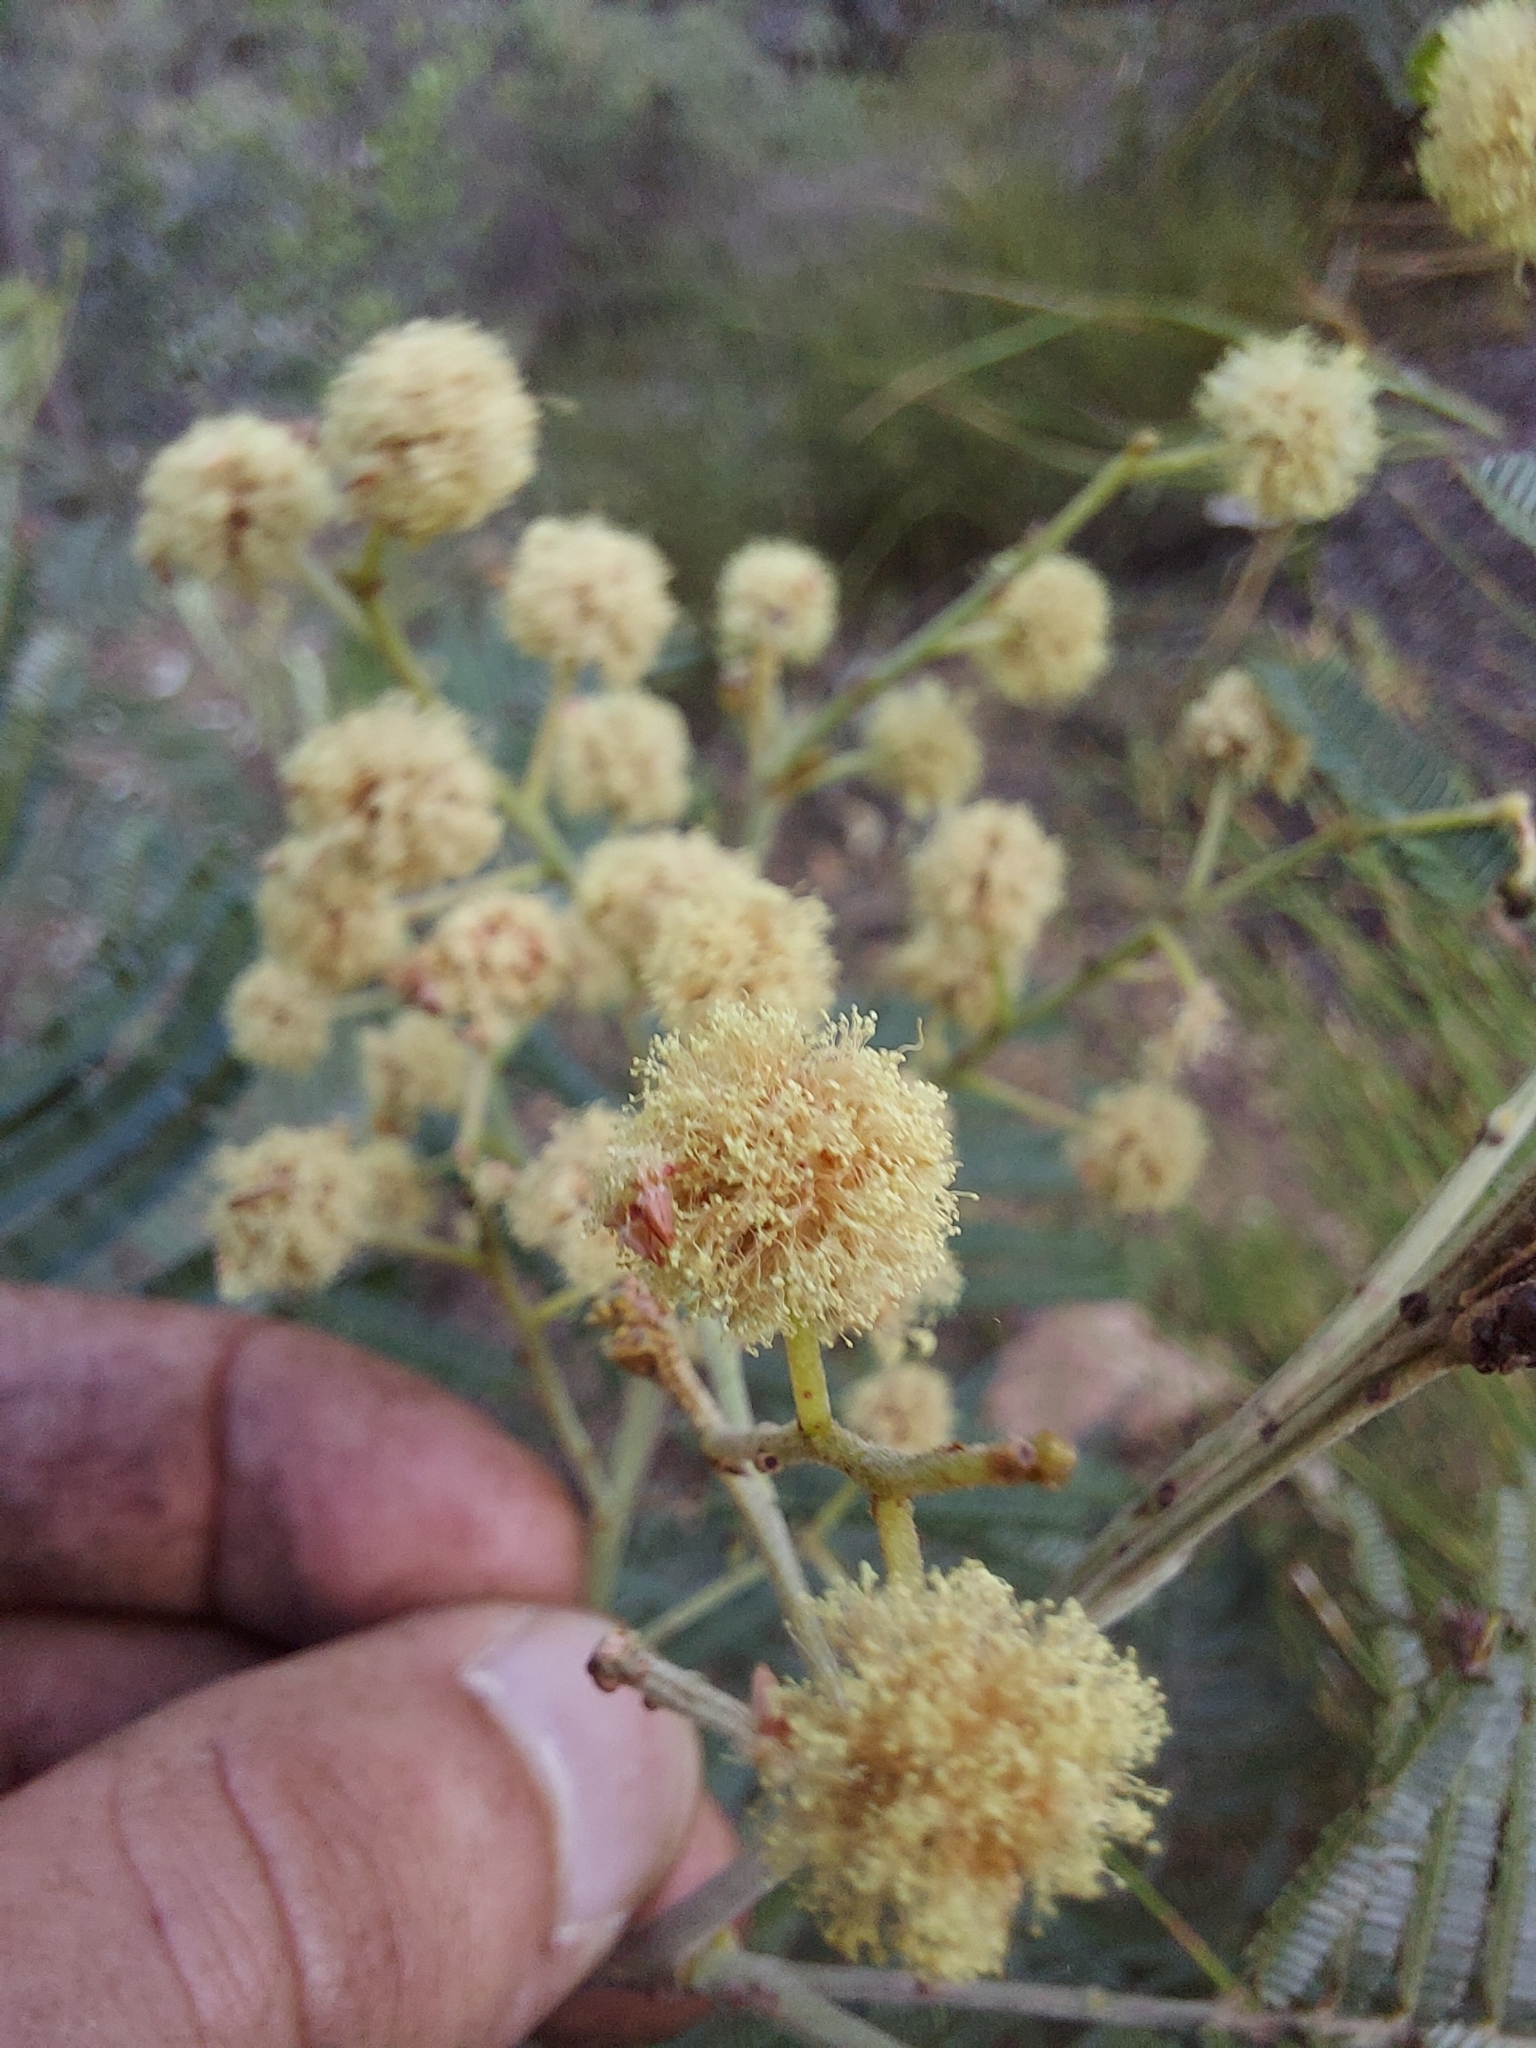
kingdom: Plantae
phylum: Tracheophyta
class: Magnoliopsida
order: Fabales
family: Fabaceae
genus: Acacia
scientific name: Acacia mearnsii
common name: Black wattle
